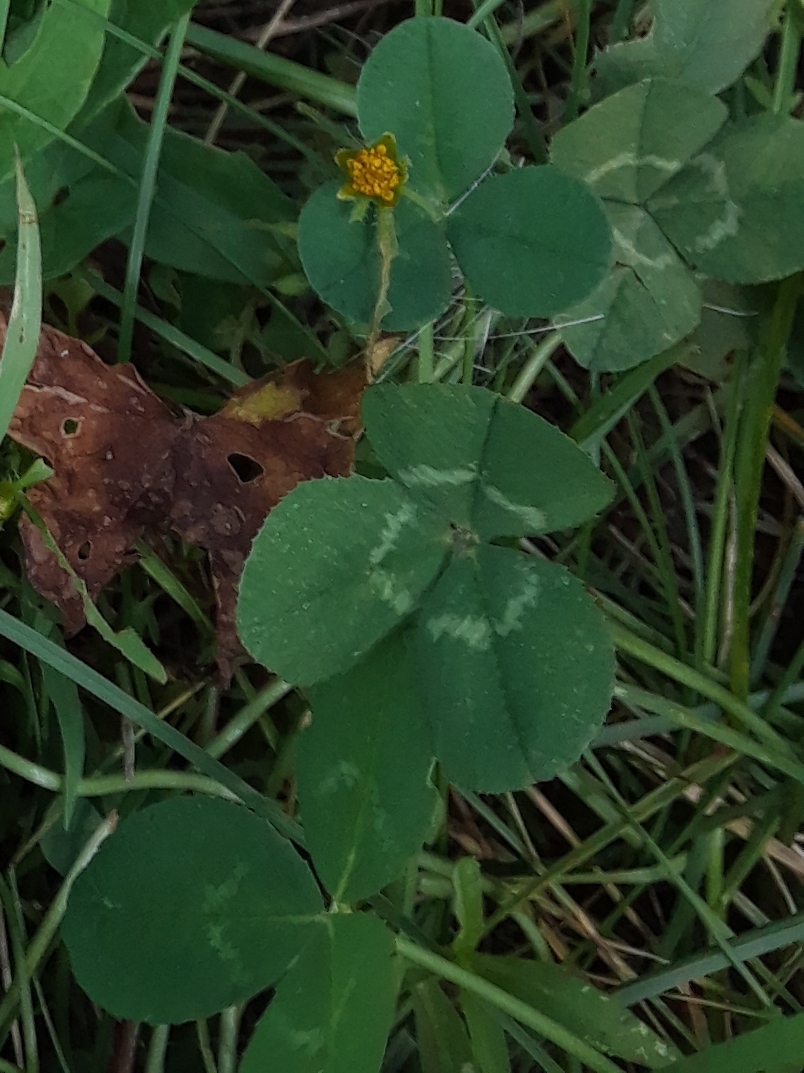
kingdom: Plantae
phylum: Tracheophyta
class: Magnoliopsida
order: Fabales
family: Fabaceae
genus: Trifolium
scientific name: Trifolium repens
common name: White clover
